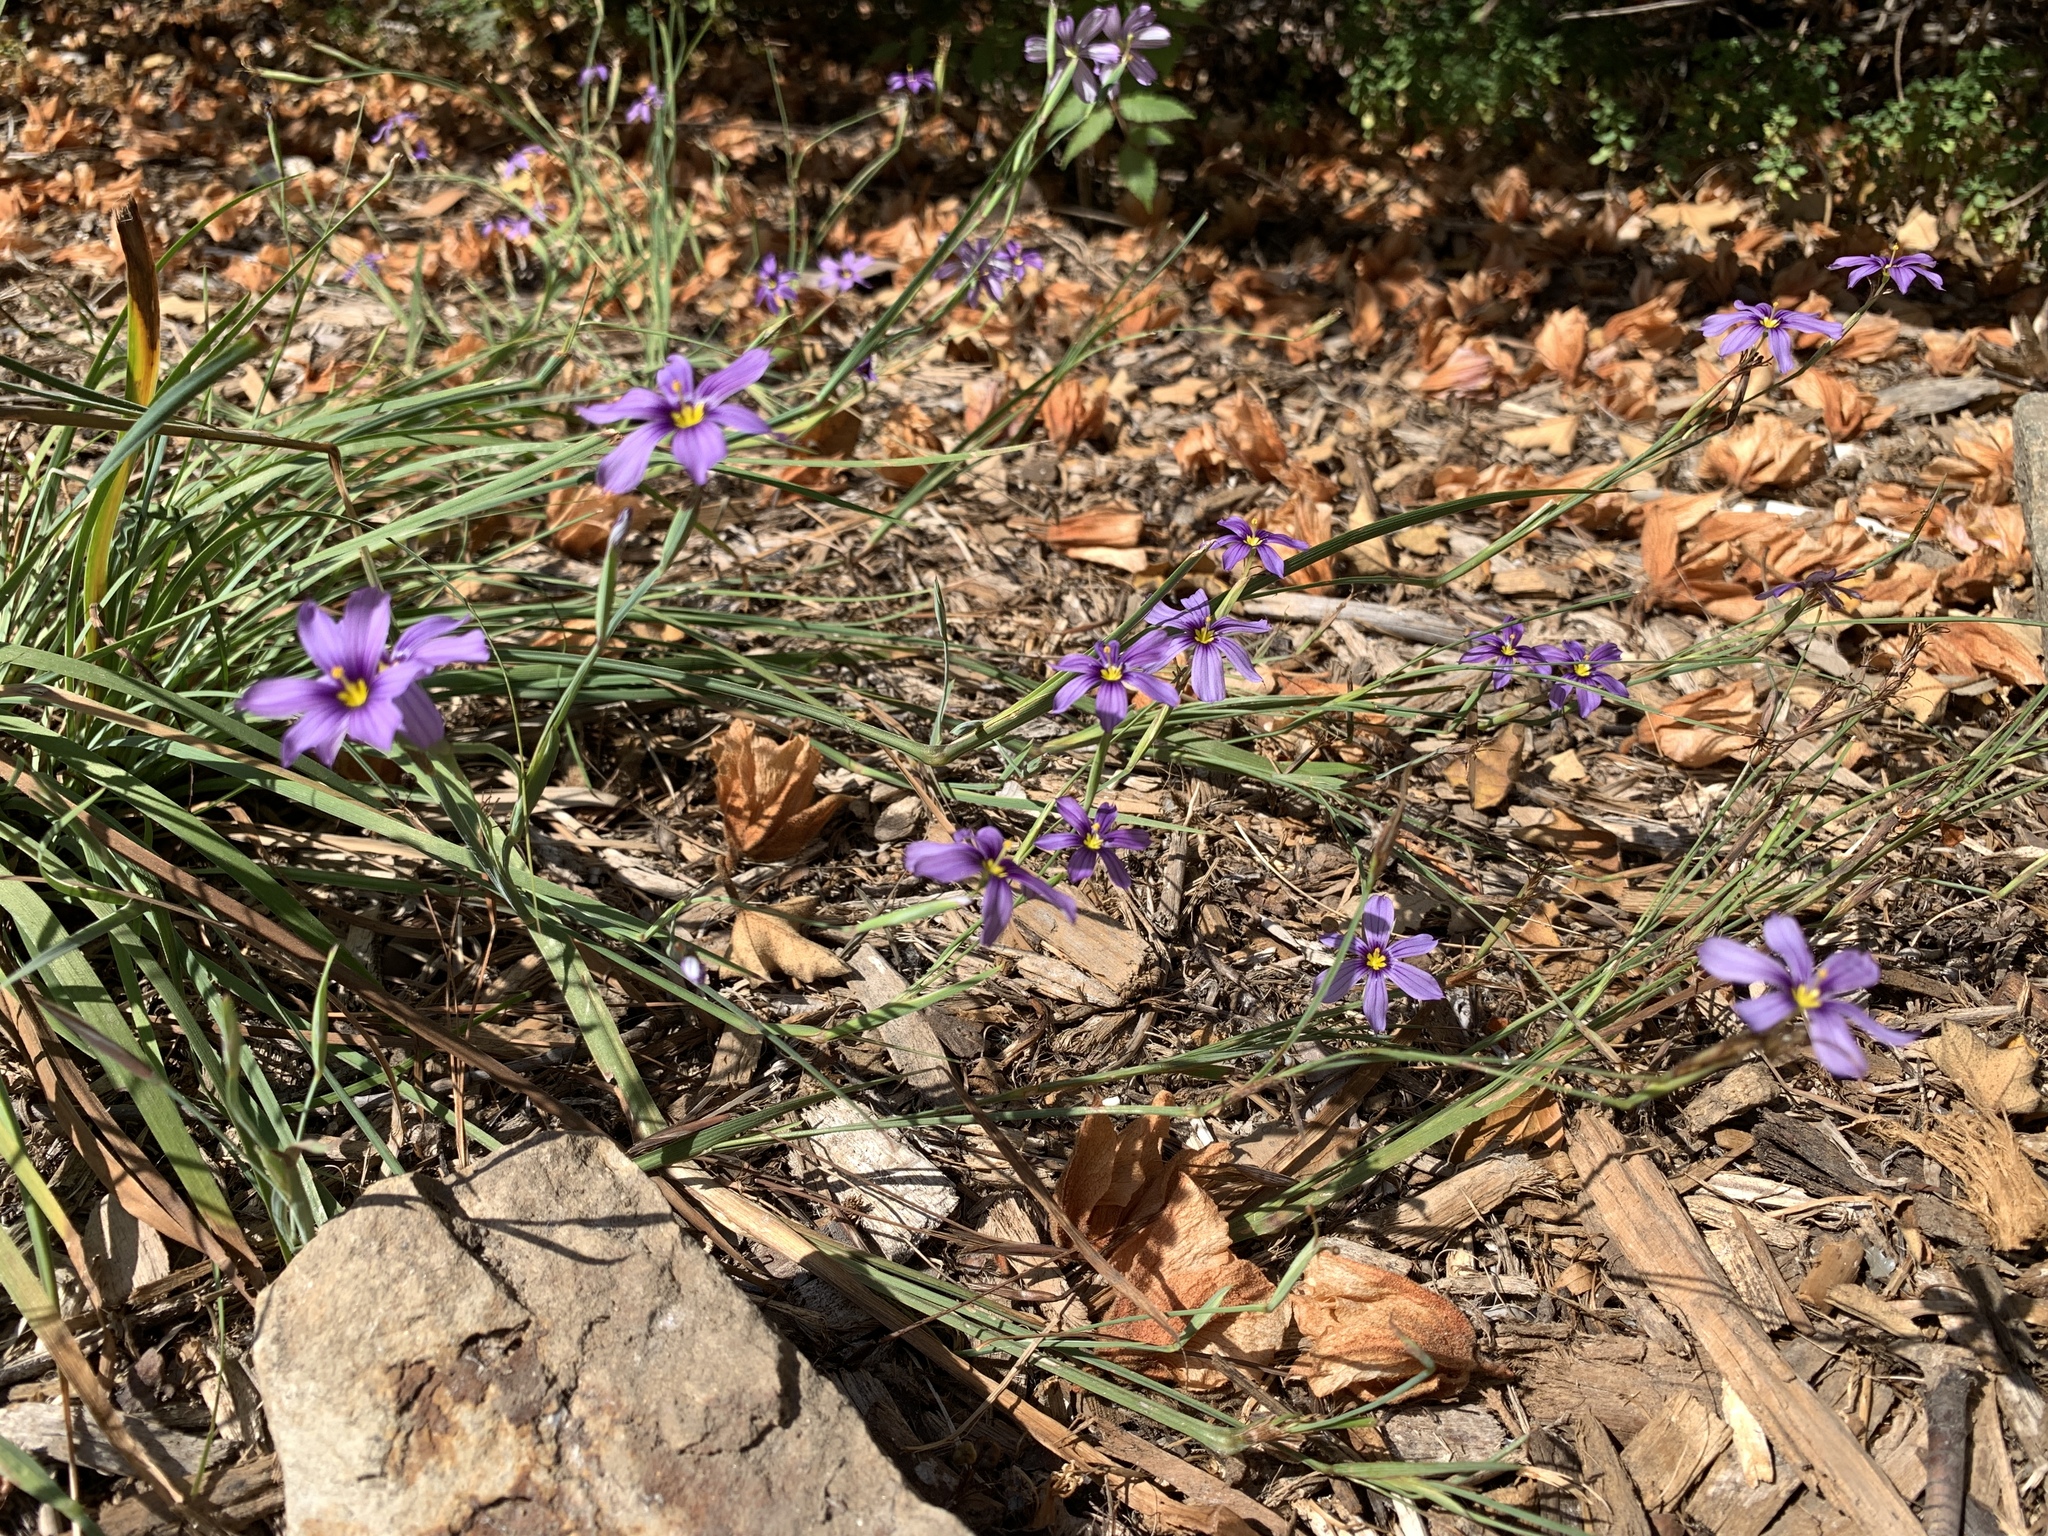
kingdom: Plantae
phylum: Tracheophyta
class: Liliopsida
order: Asparagales
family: Iridaceae
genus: Sisyrinchium
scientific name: Sisyrinchium bellum
